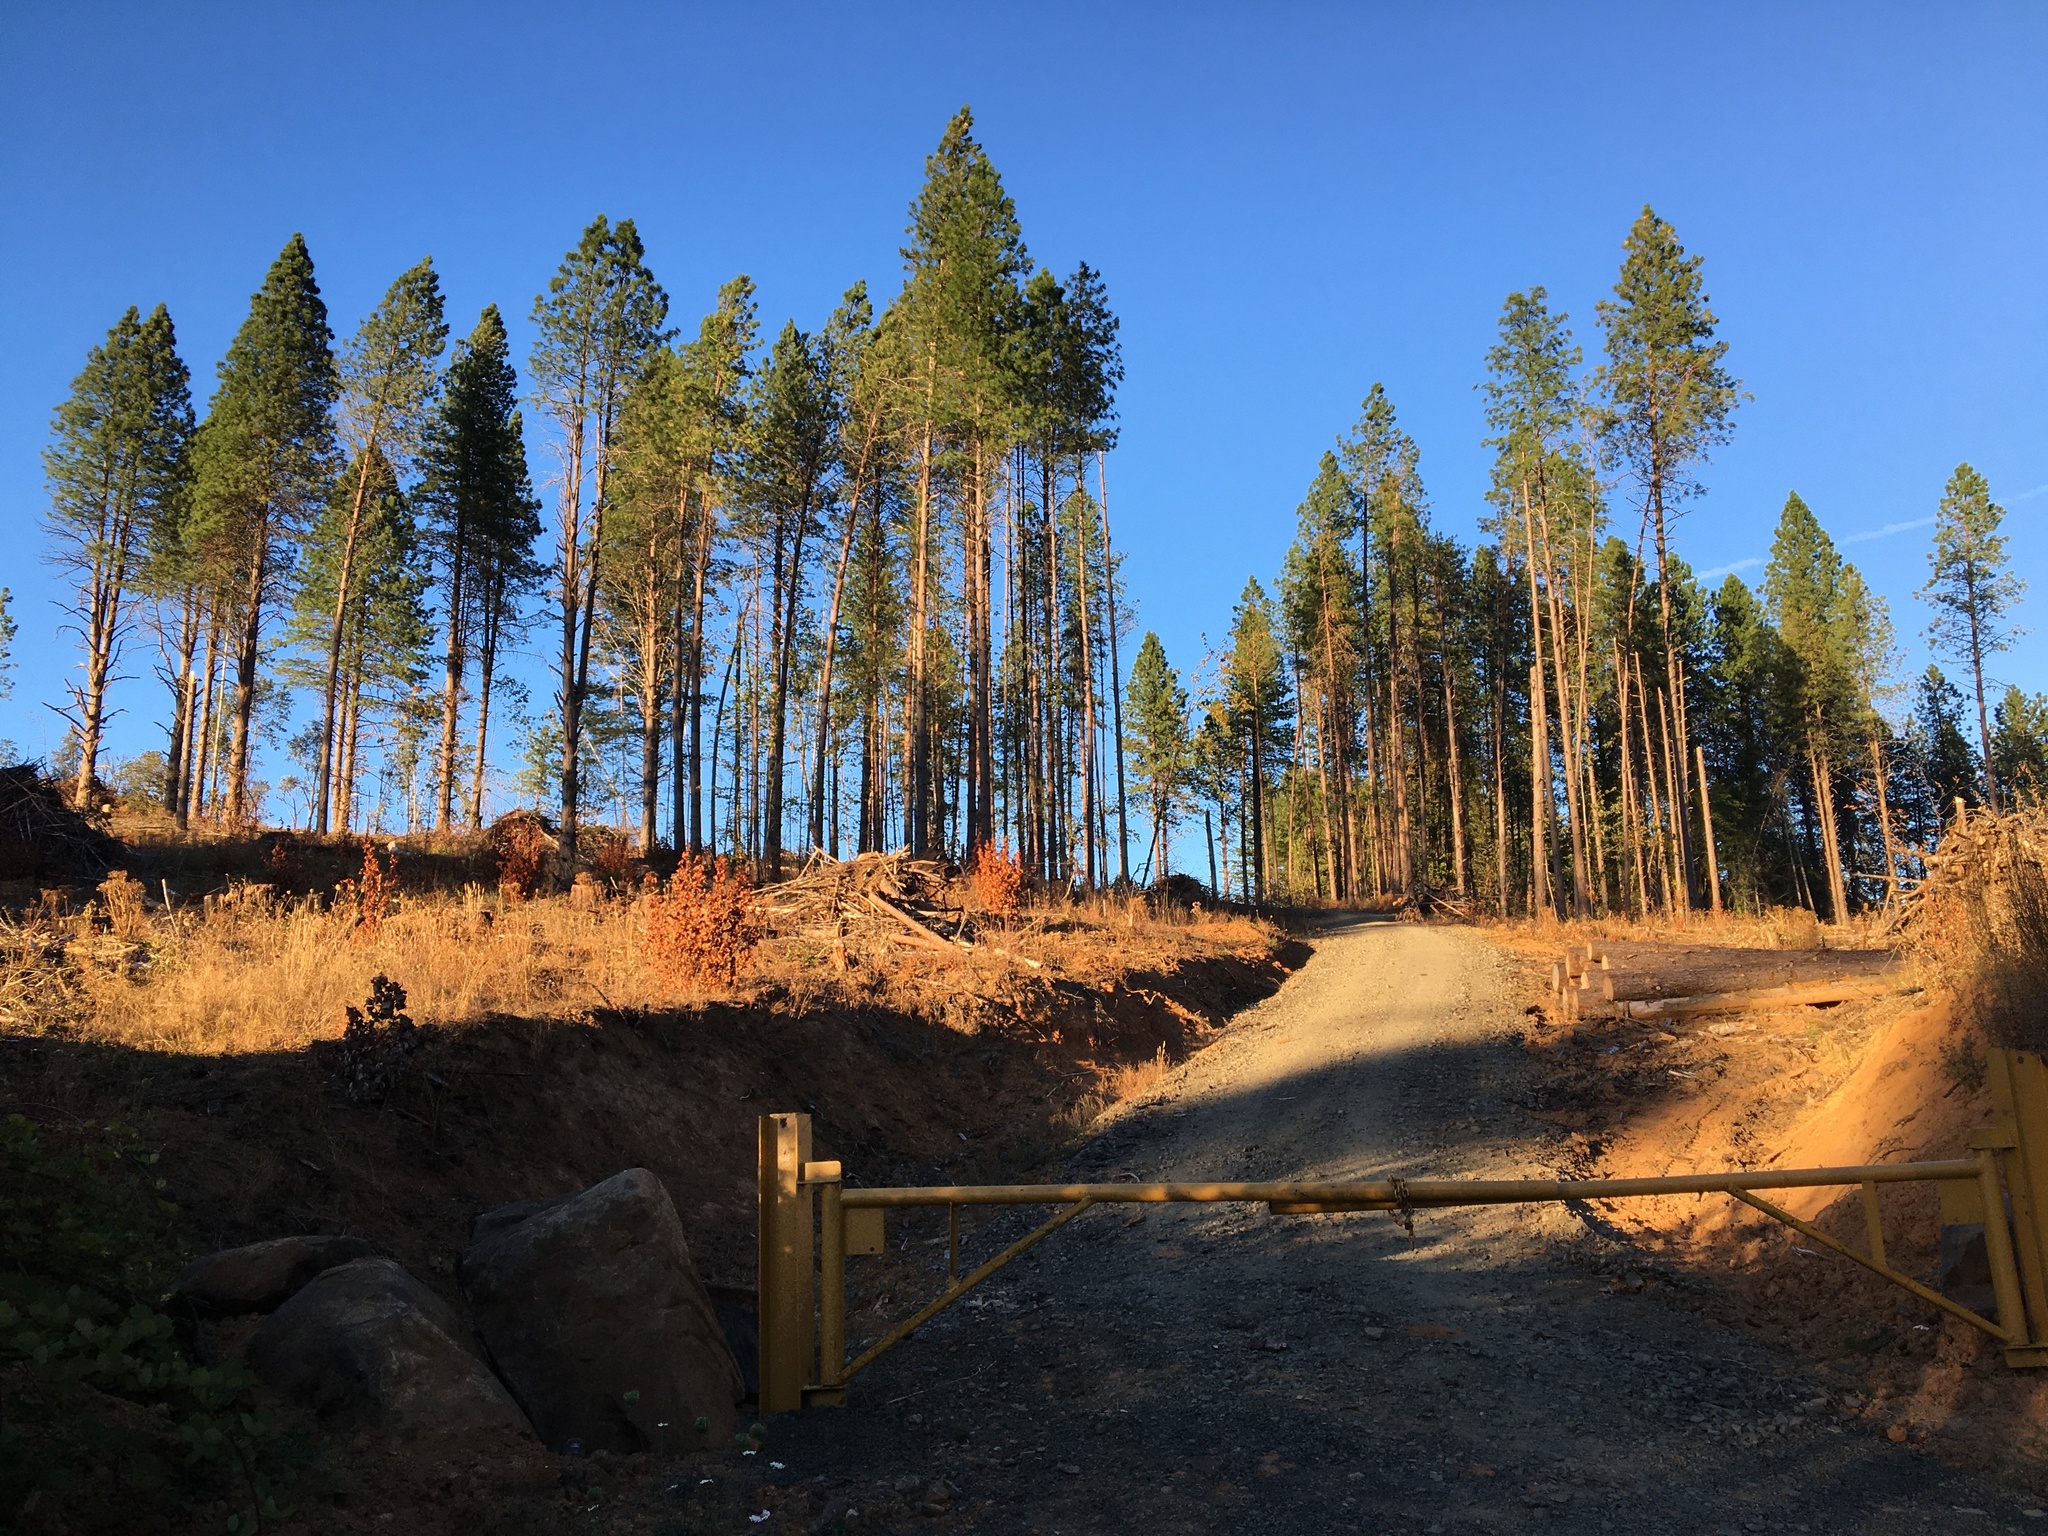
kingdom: Plantae
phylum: Tracheophyta
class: Pinopsida
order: Pinales
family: Pinaceae
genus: Pinus
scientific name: Pinus ponderosa
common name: Western yellow-pine
